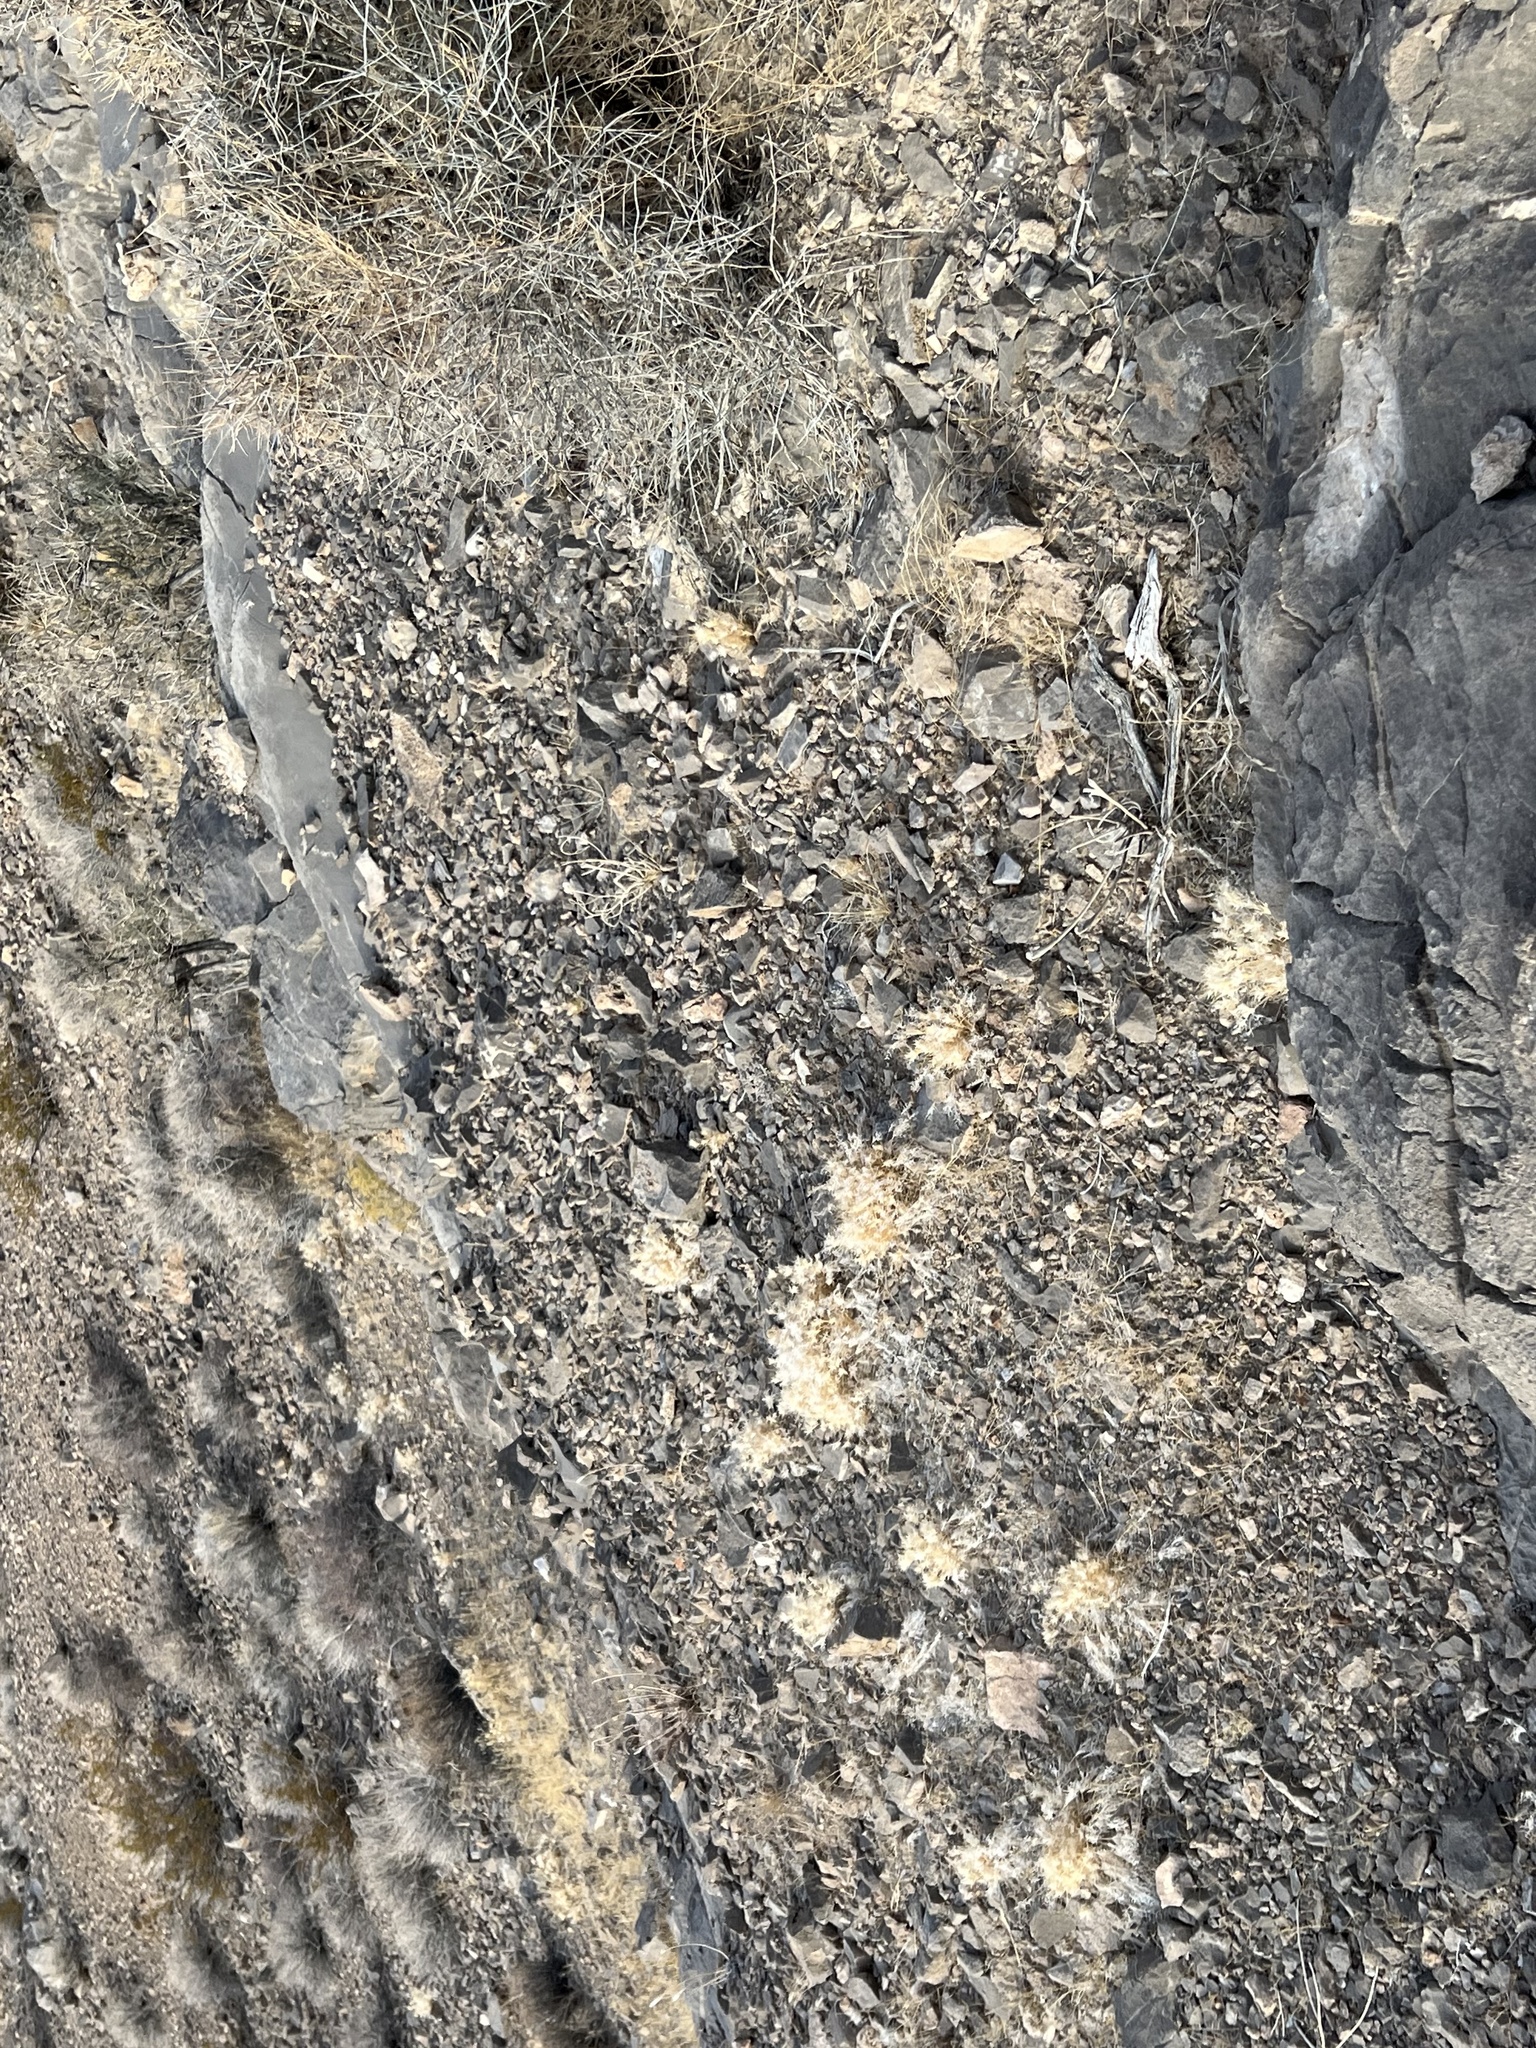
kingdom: Plantae
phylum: Tracheophyta
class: Gnetopsida
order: Ephedrales
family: Ephedraceae
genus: Ephedra
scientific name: Ephedra nevadensis
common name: Gray ephedra
